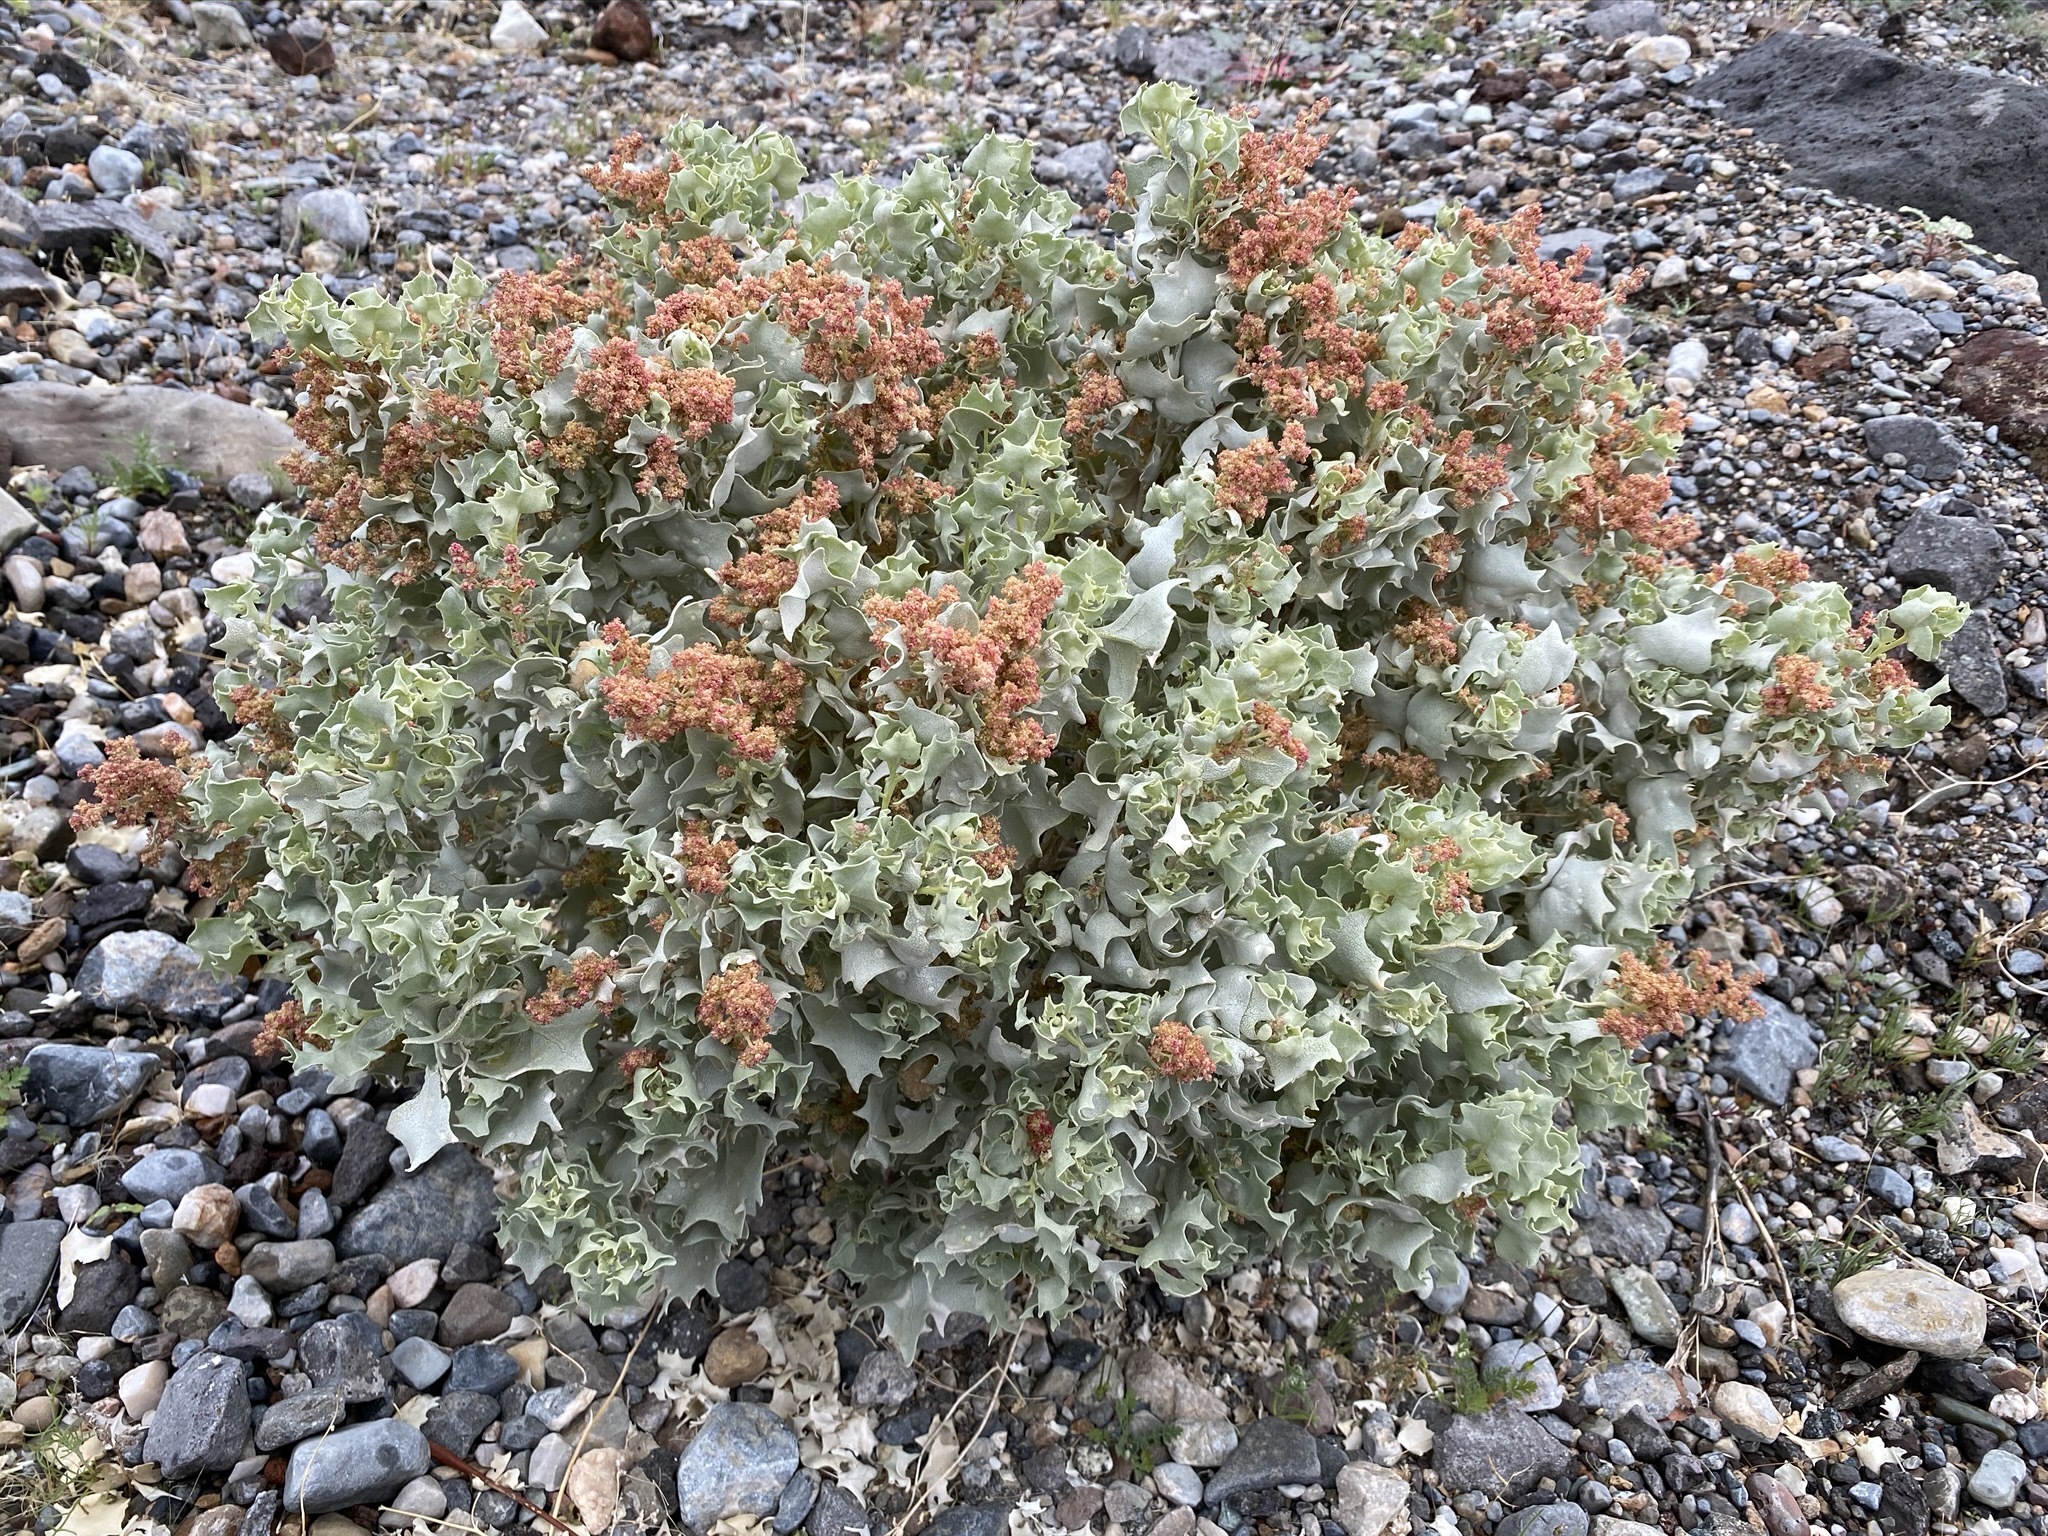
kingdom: Plantae
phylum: Tracheophyta
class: Magnoliopsida
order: Caryophyllales
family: Amaranthaceae
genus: Atriplex
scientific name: Atriplex hymenelytra
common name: Desert-holly
